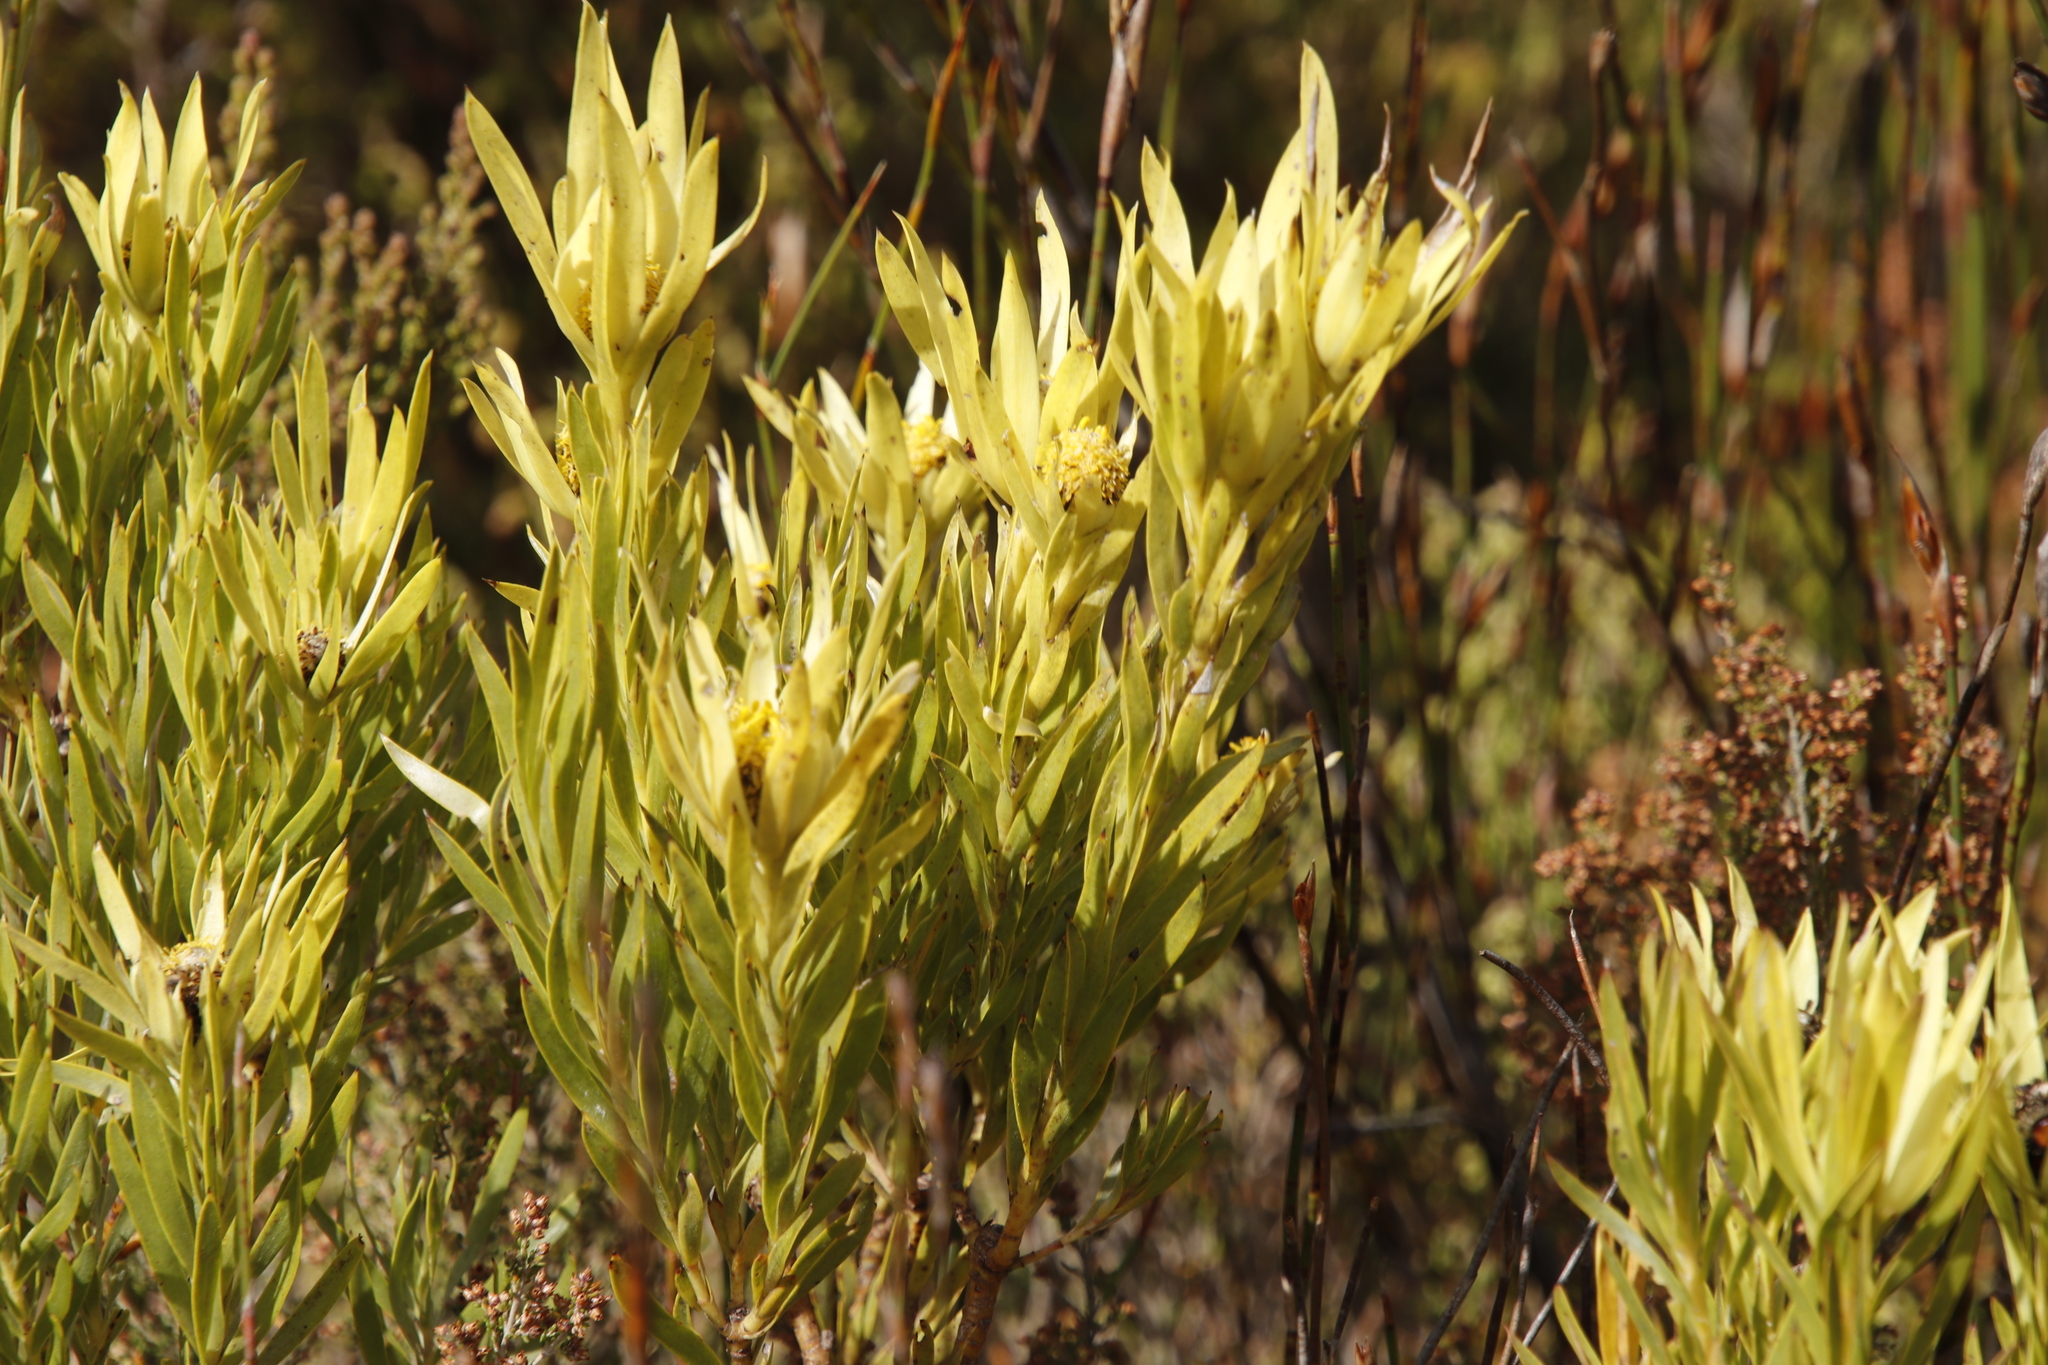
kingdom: Plantae
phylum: Tracheophyta
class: Magnoliopsida
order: Proteales
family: Proteaceae
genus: Leucadendron
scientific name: Leucadendron xanthoconus
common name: Sickle-leaf conebush
